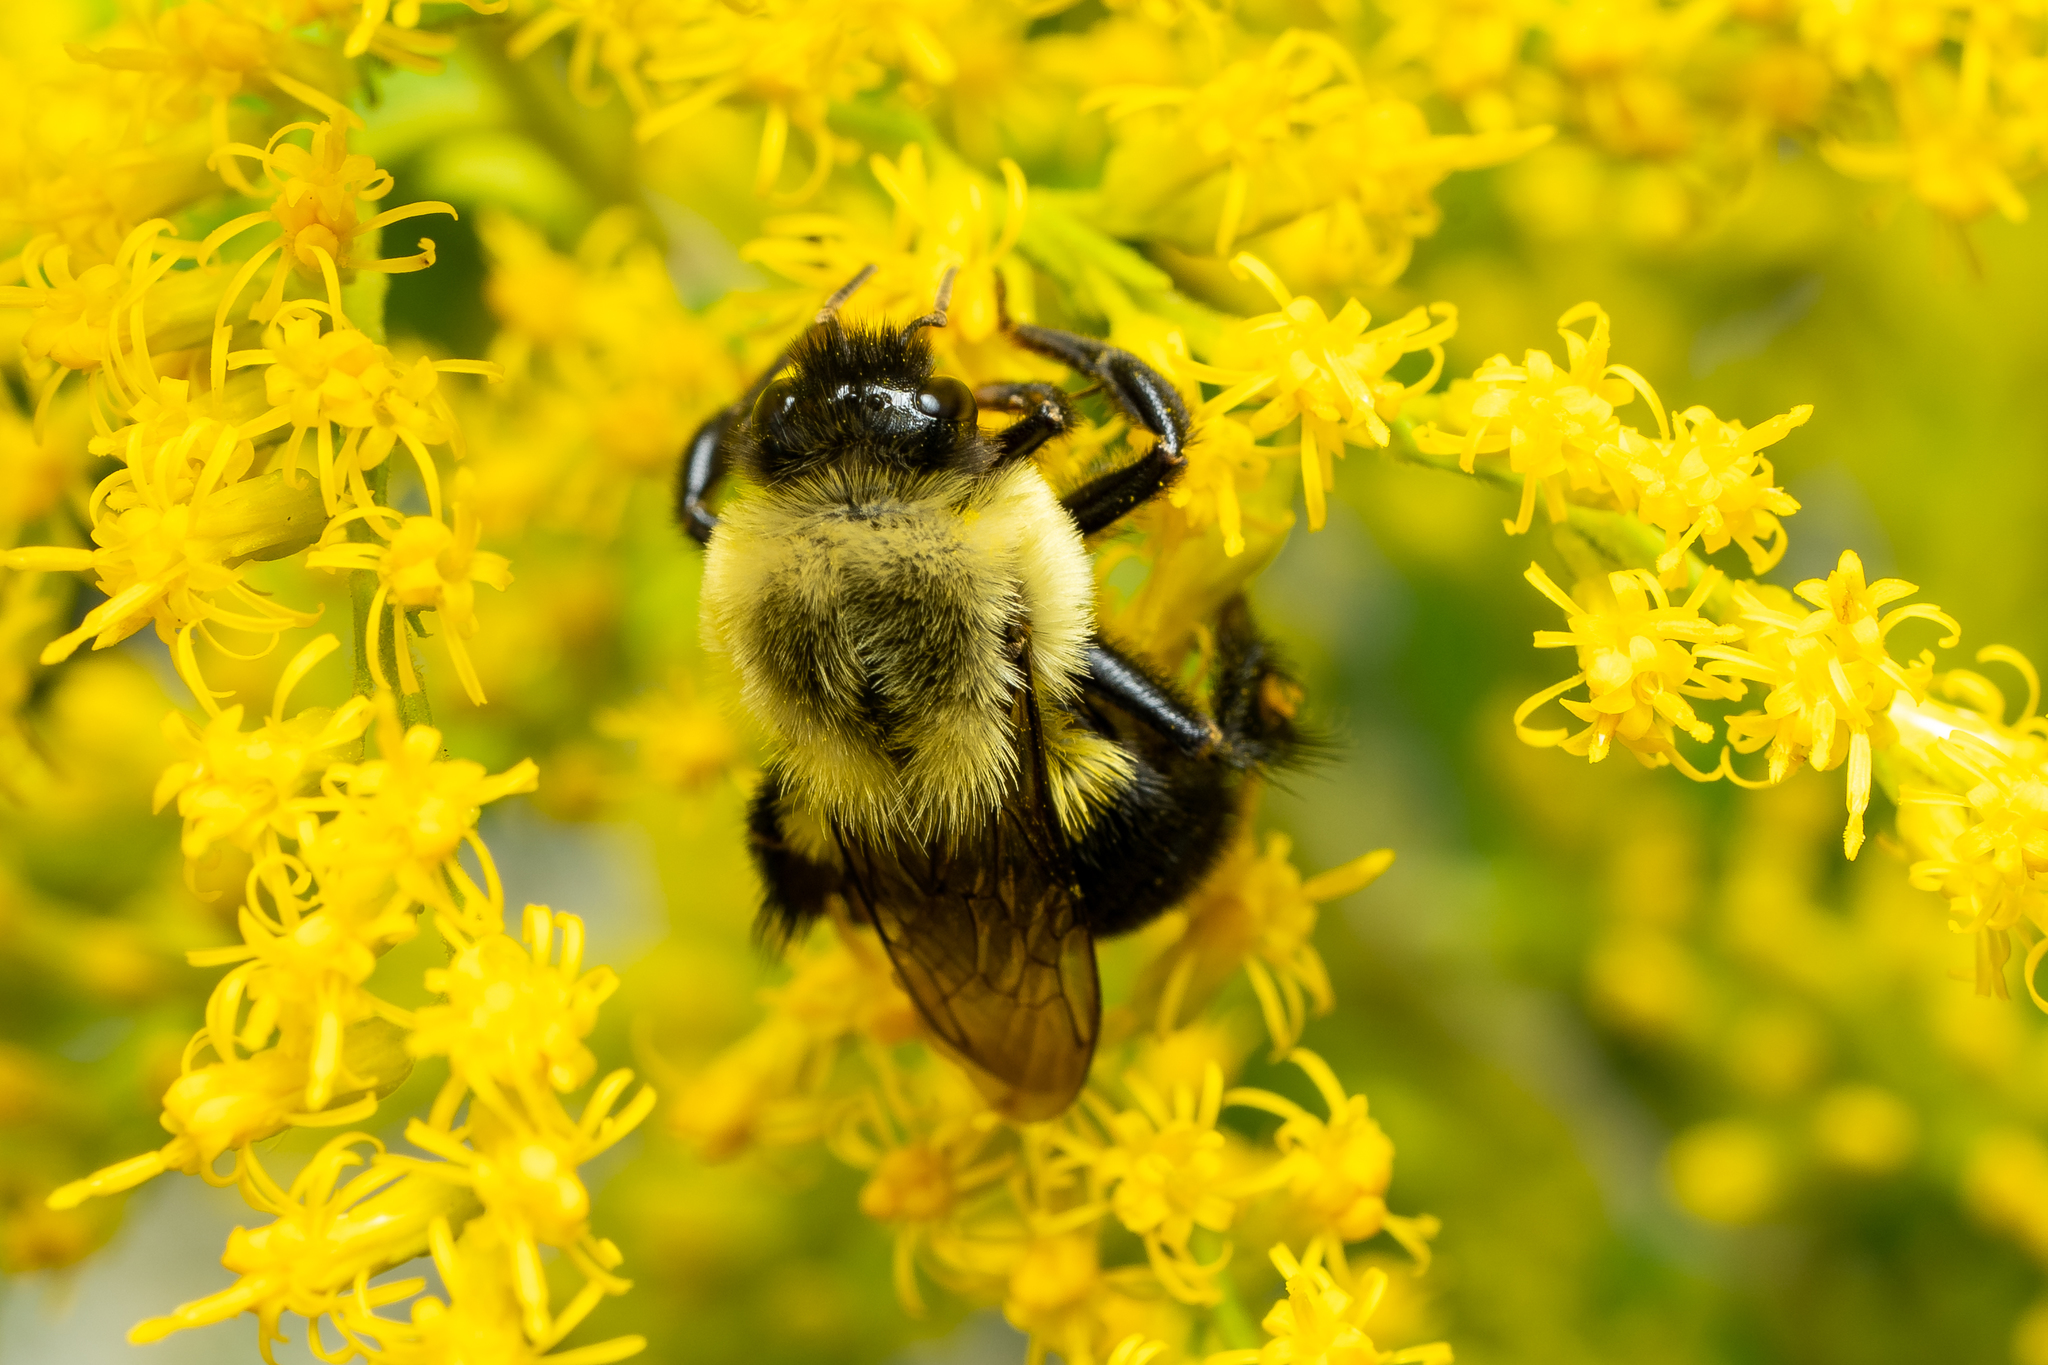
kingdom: Animalia
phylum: Arthropoda
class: Insecta
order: Hymenoptera
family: Apidae
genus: Bombus
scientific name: Bombus impatiens
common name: Common eastern bumble bee
